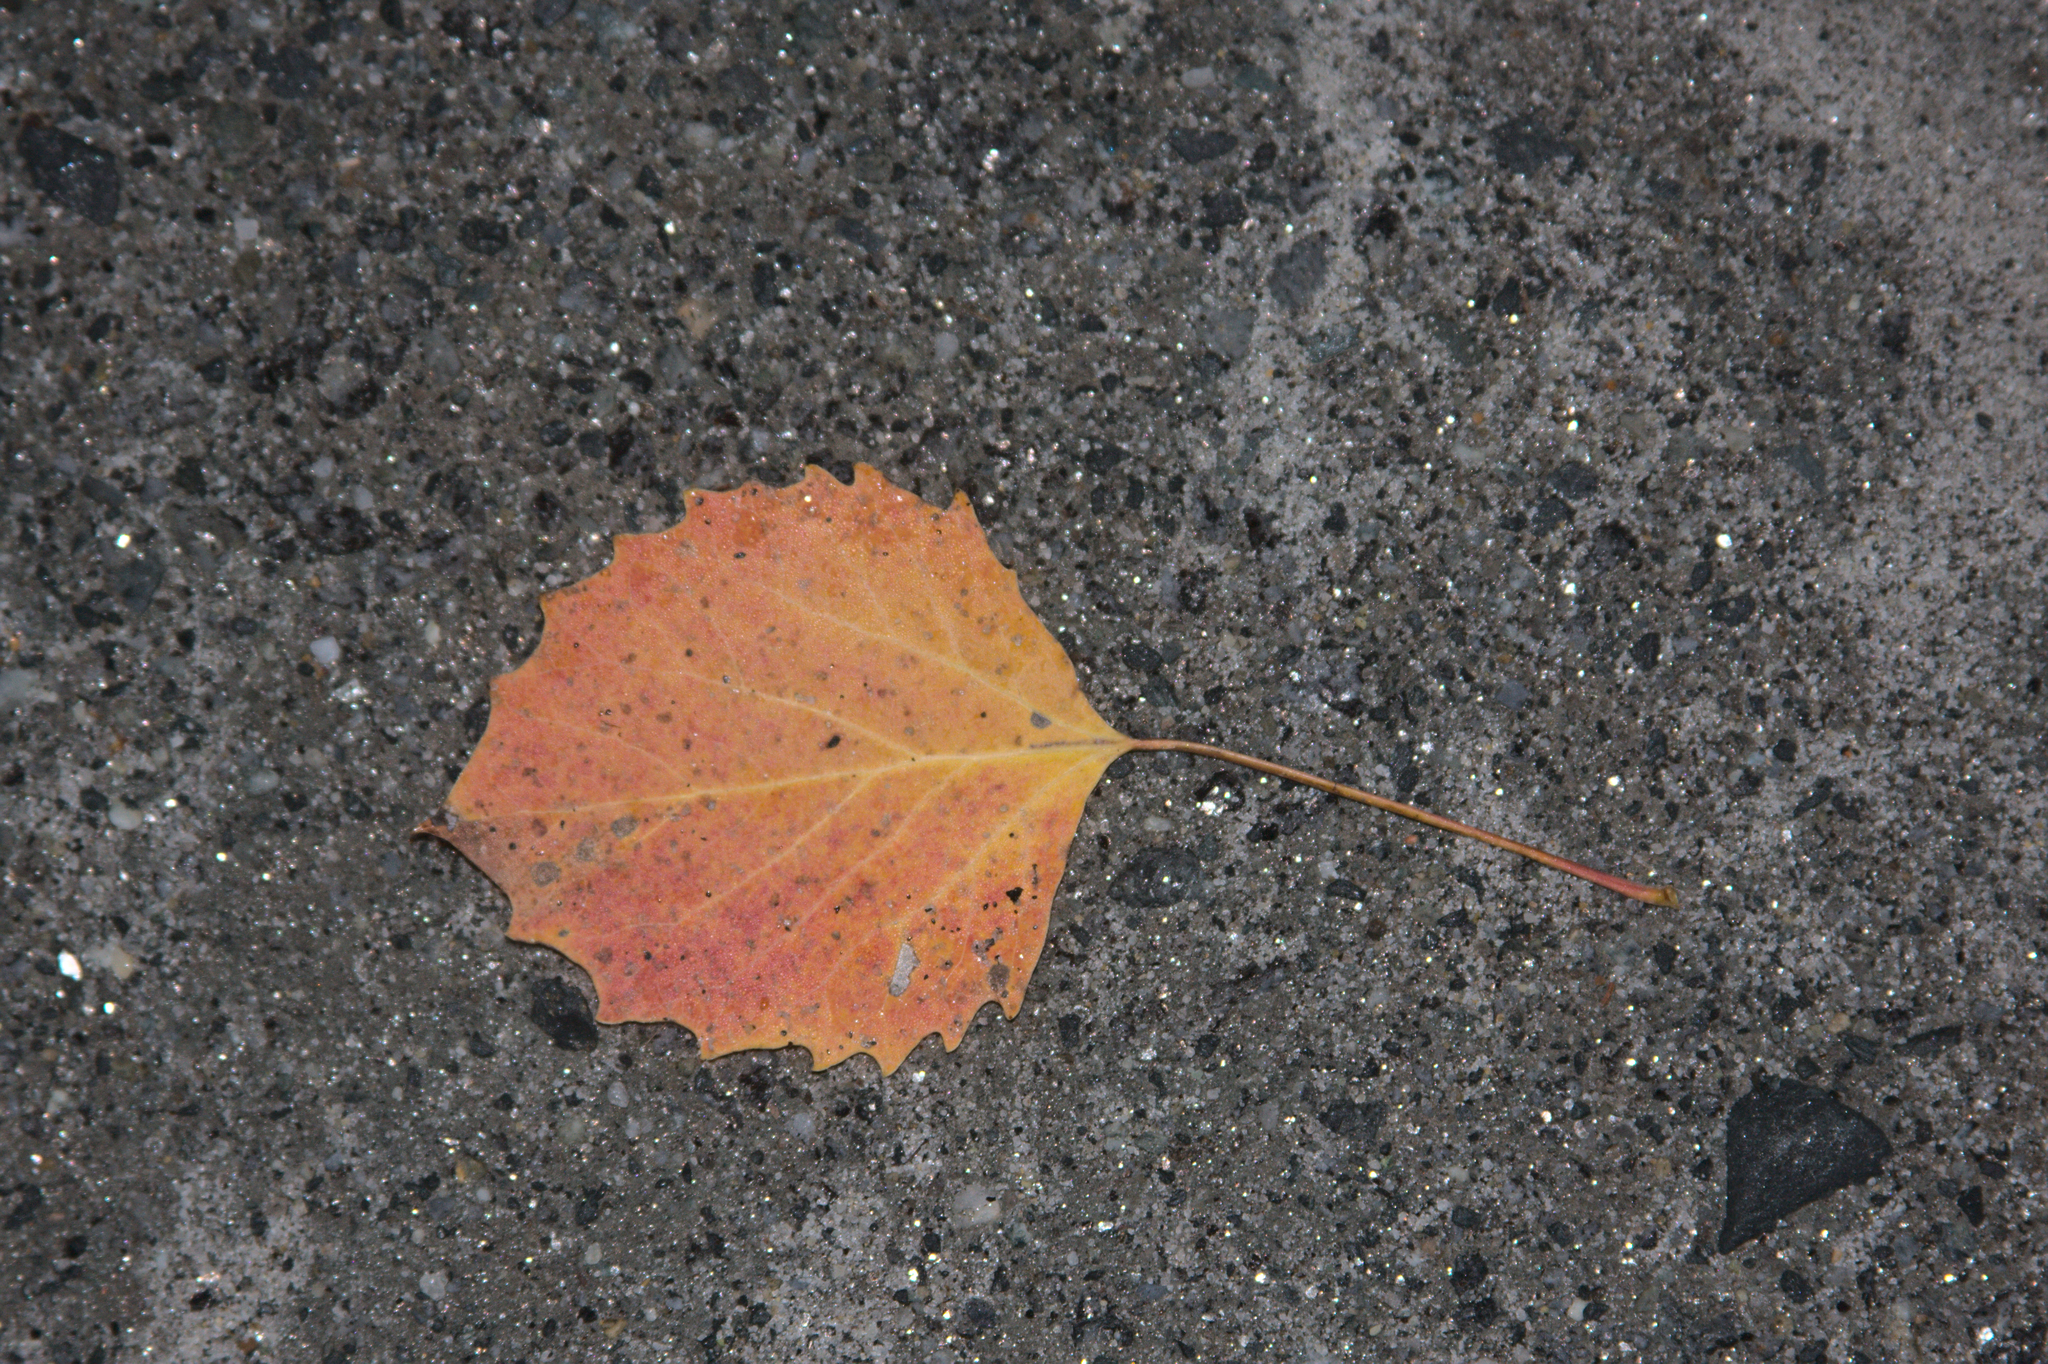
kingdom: Plantae
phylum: Tracheophyta
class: Magnoliopsida
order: Malpighiales
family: Salicaceae
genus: Populus
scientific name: Populus grandidentata
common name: Bigtooth aspen
